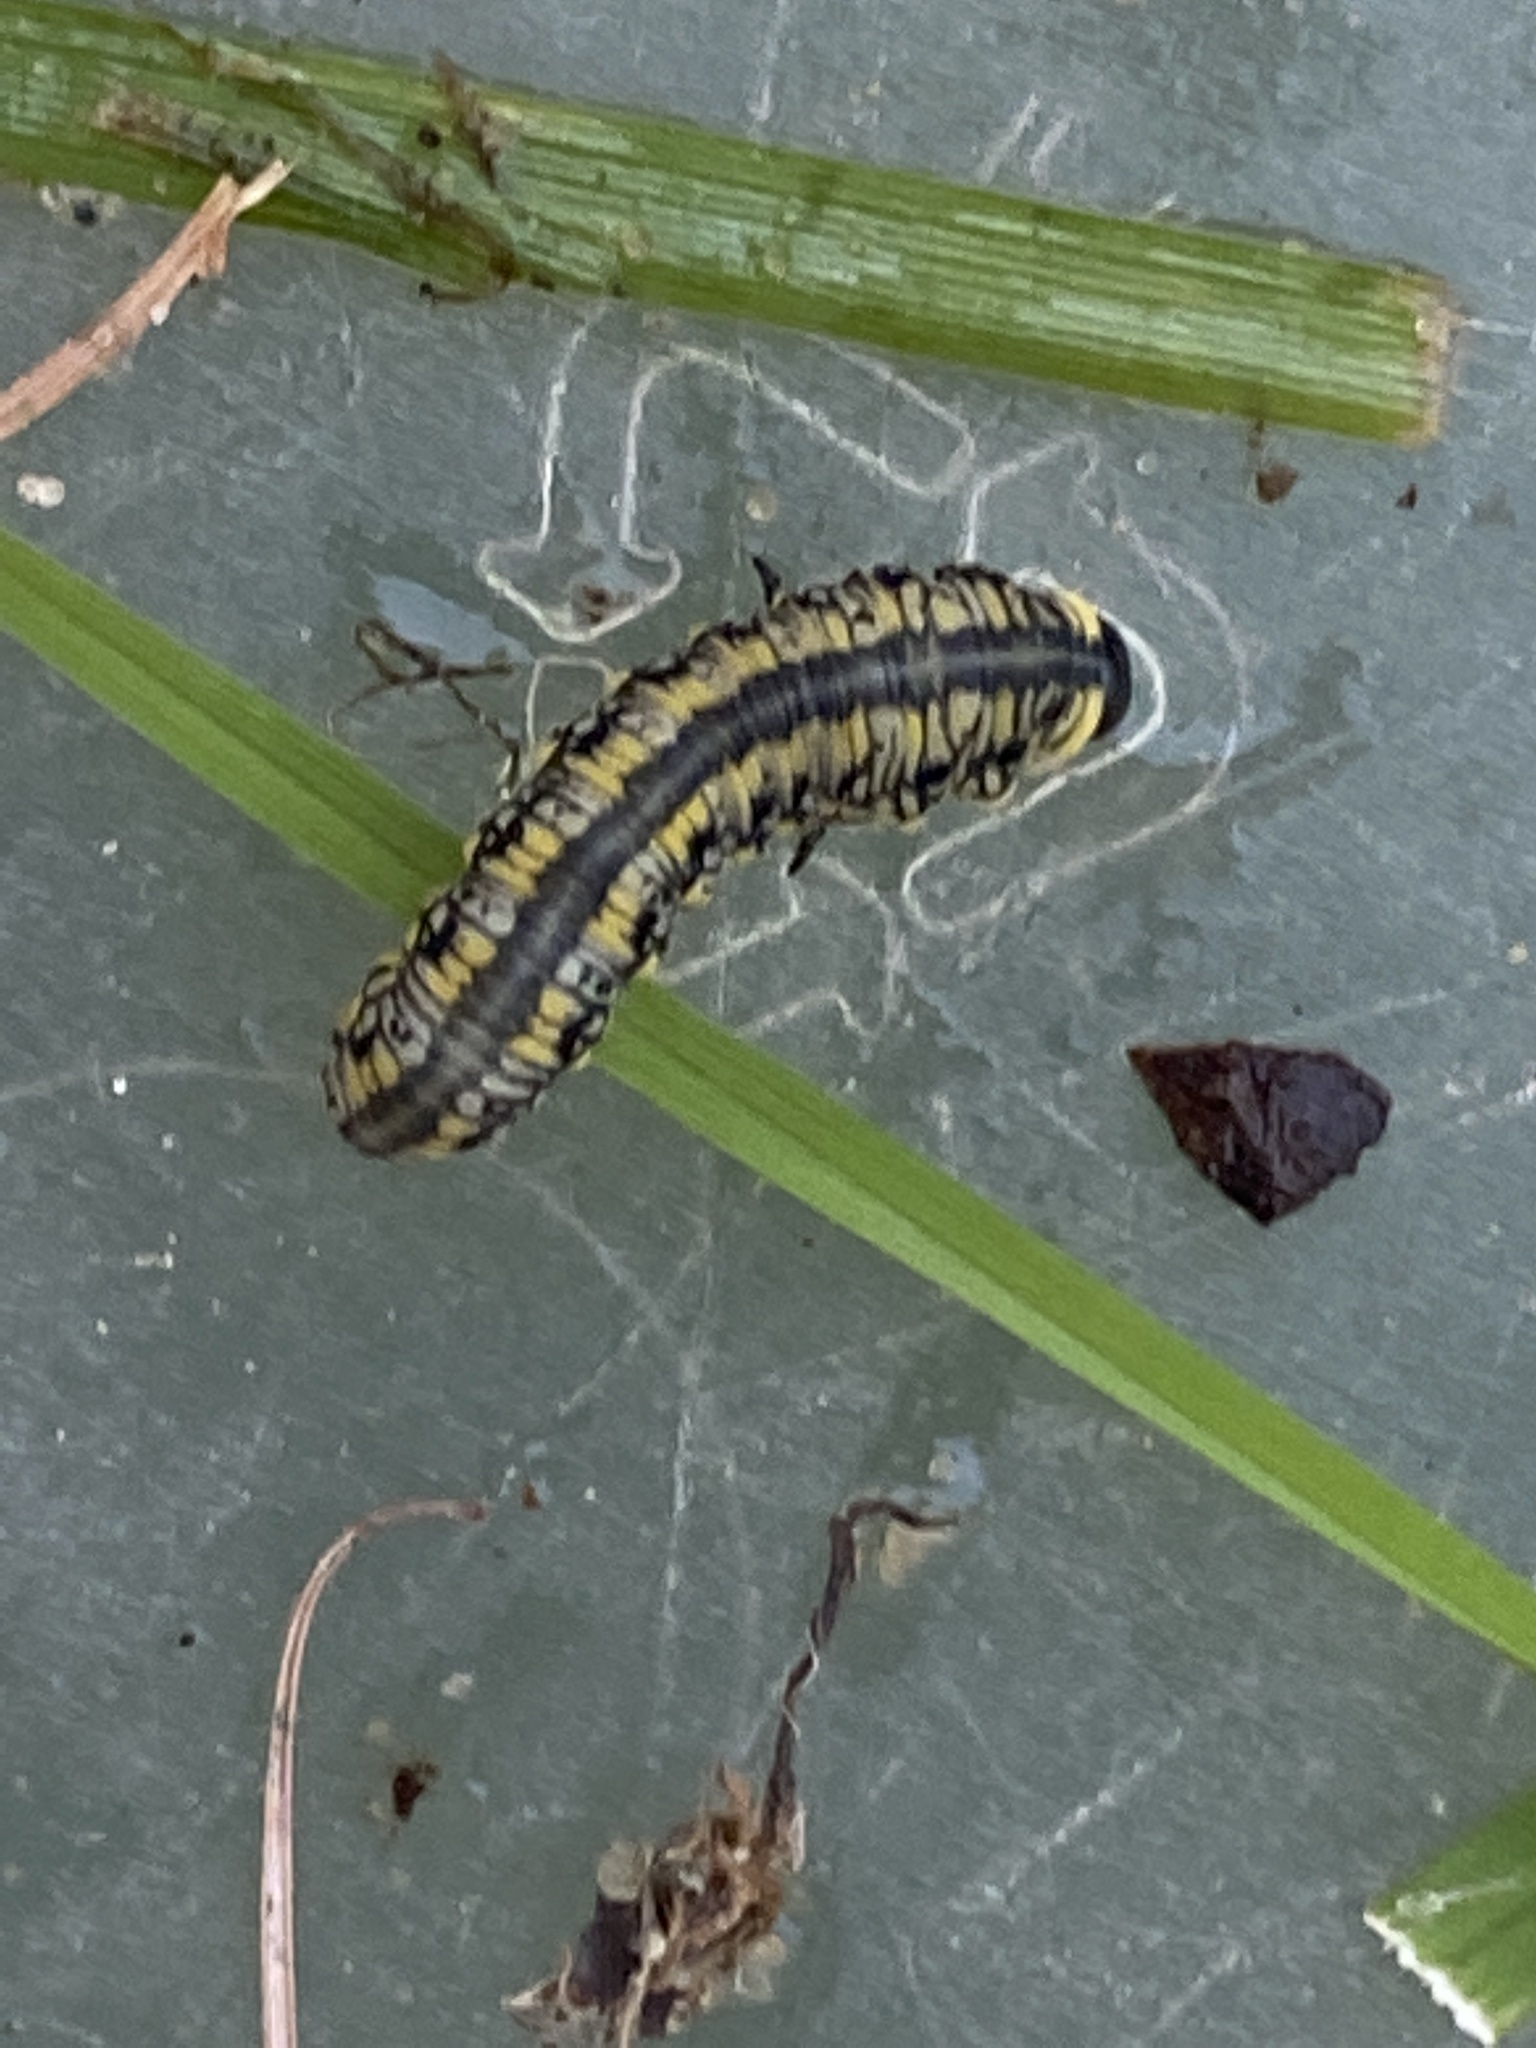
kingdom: Animalia
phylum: Arthropoda
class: Insecta
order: Hymenoptera
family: Diprionidae
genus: Diprion
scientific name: Diprion similis
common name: Pine sawfly
